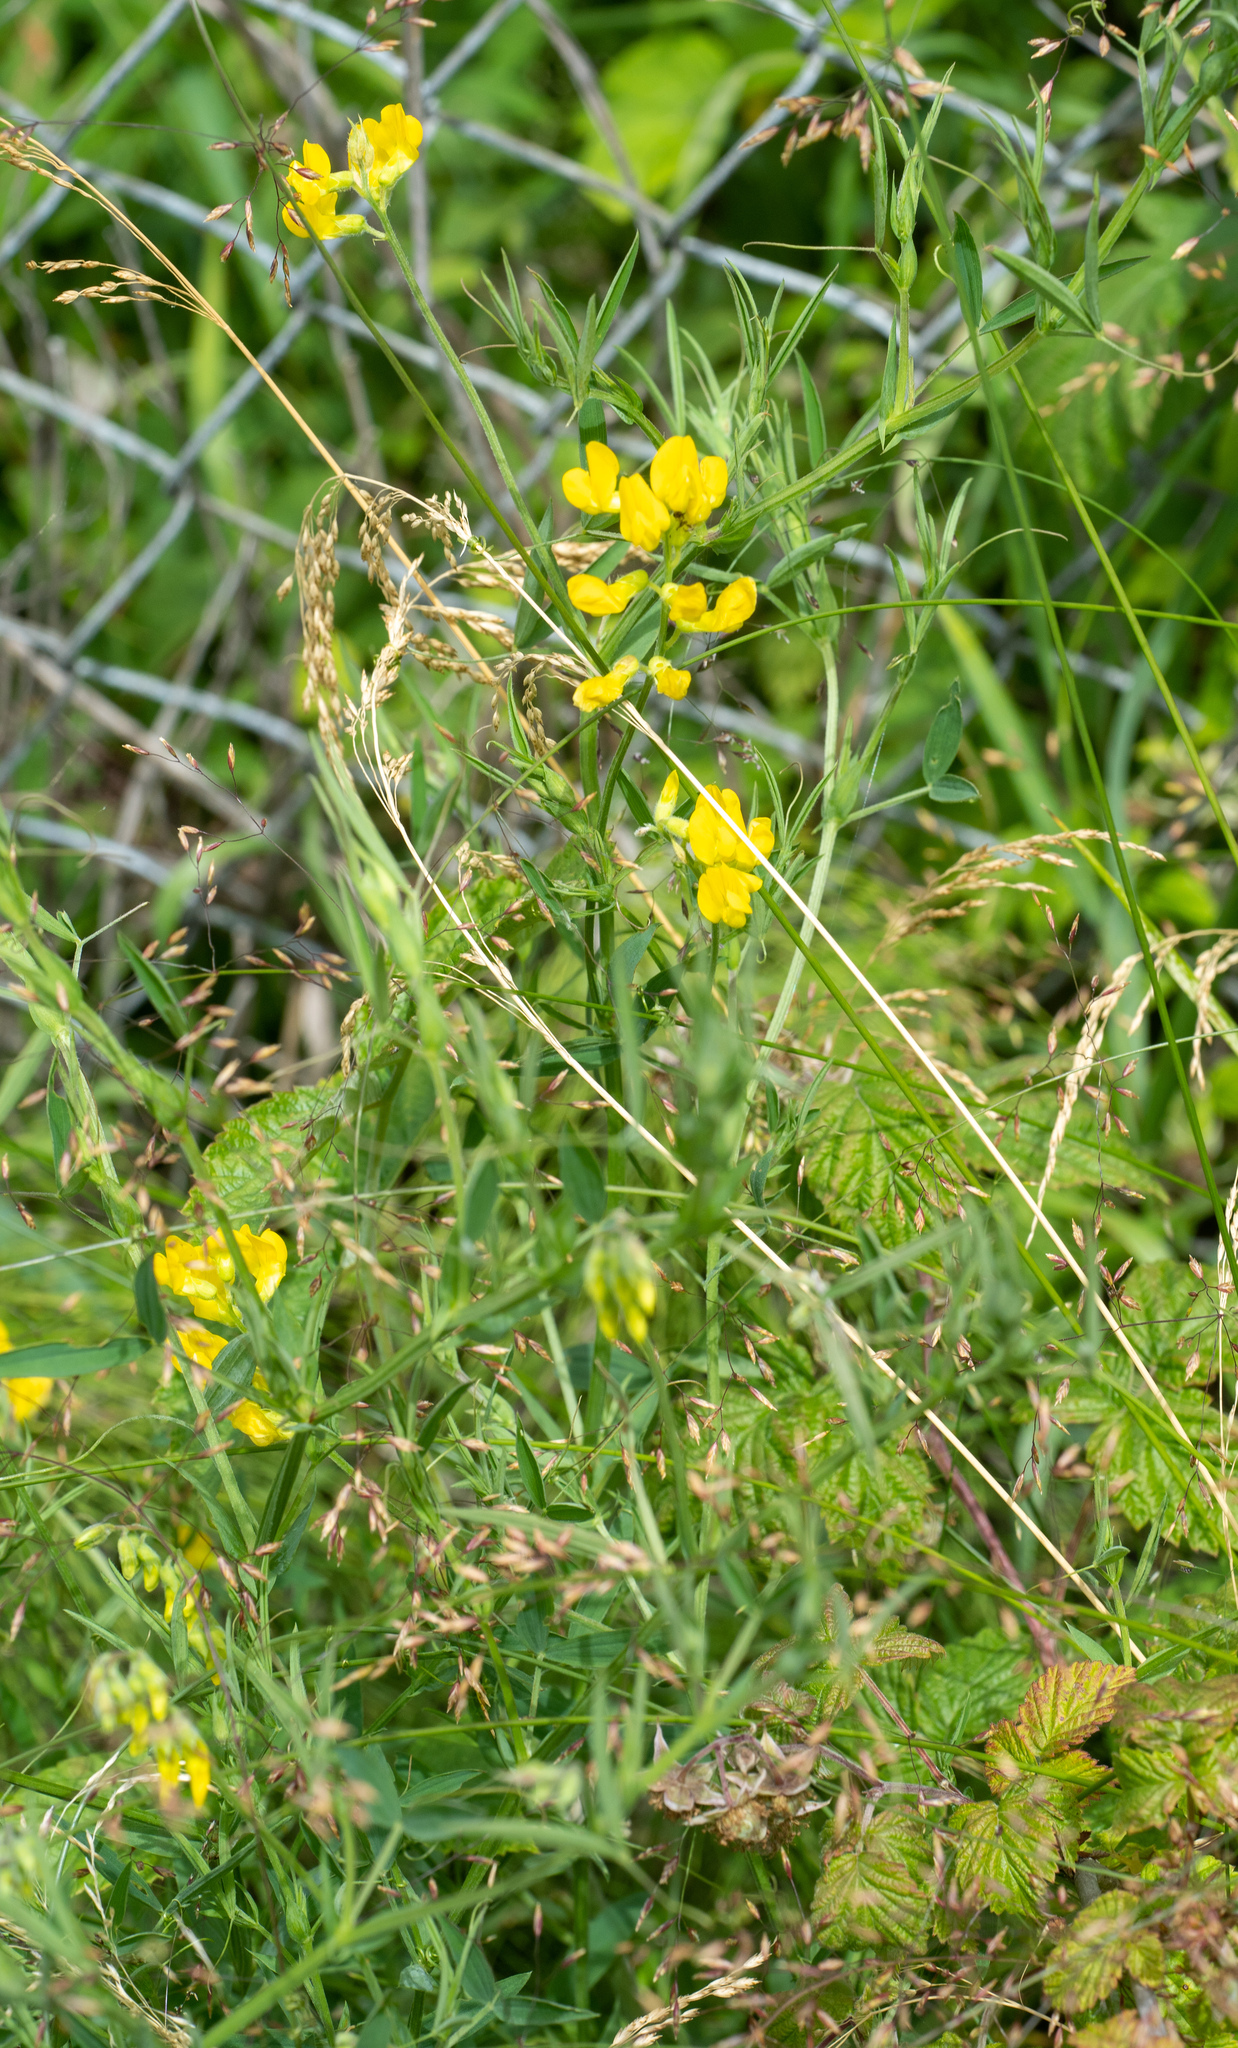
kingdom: Plantae
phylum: Tracheophyta
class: Magnoliopsida
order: Fabales
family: Fabaceae
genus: Lathyrus
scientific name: Lathyrus pratensis
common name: Meadow vetchling
